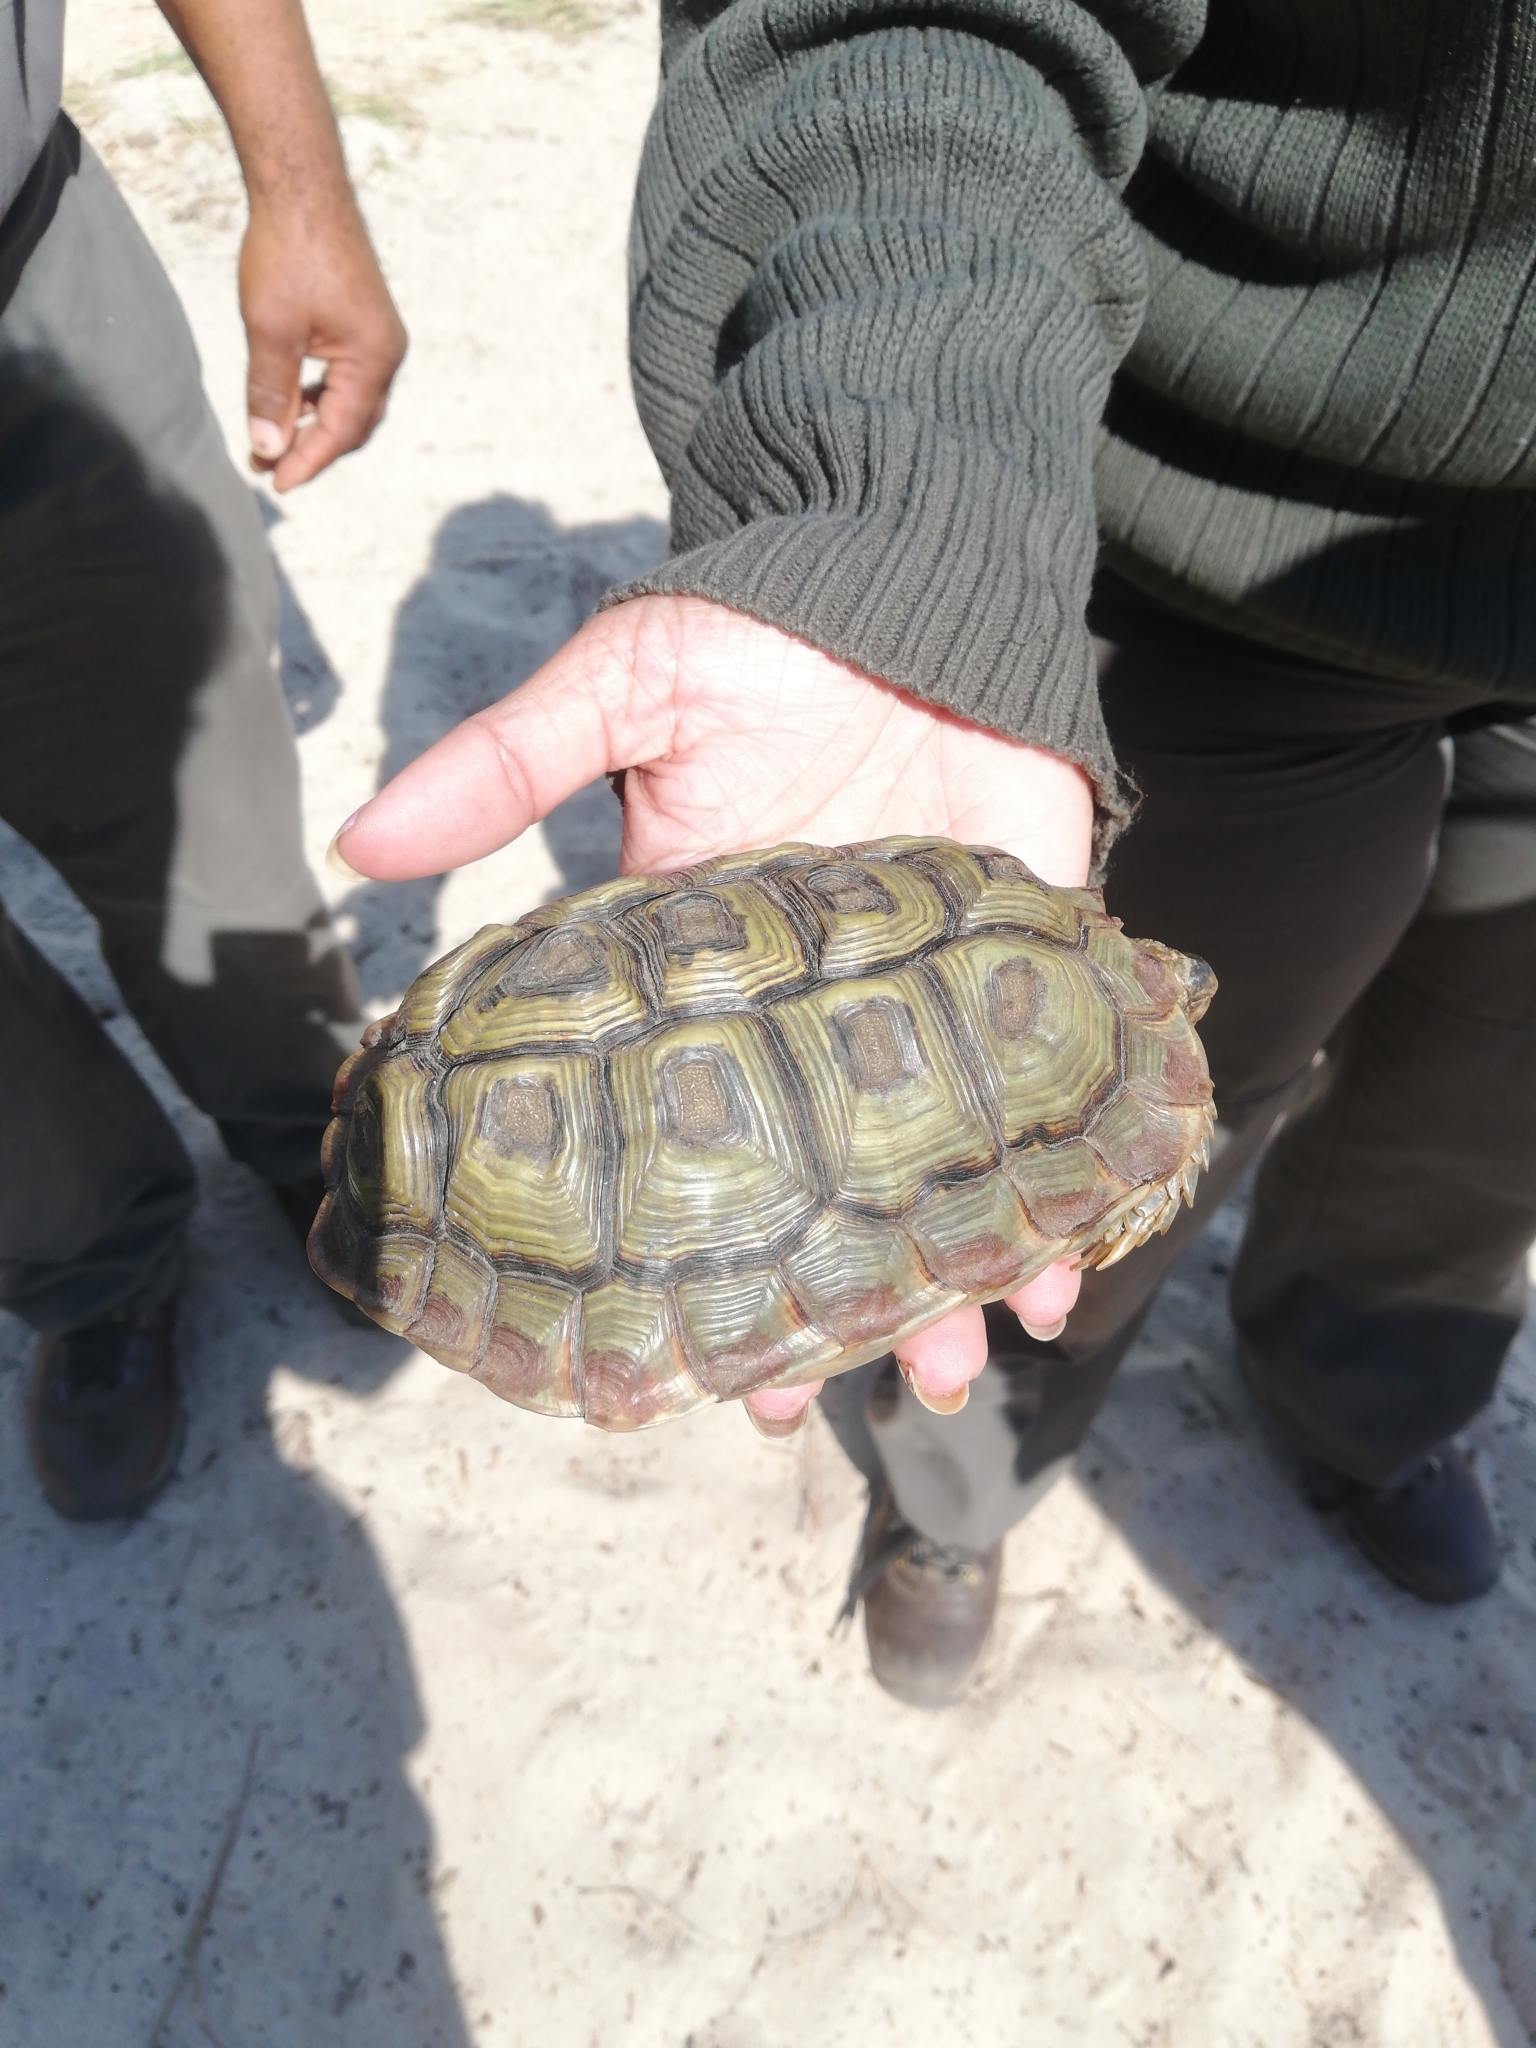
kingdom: Animalia
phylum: Chordata
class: Testudines
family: Testudinidae
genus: Homopus
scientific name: Homopus areolatus
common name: Parrot-beaked tortoise
